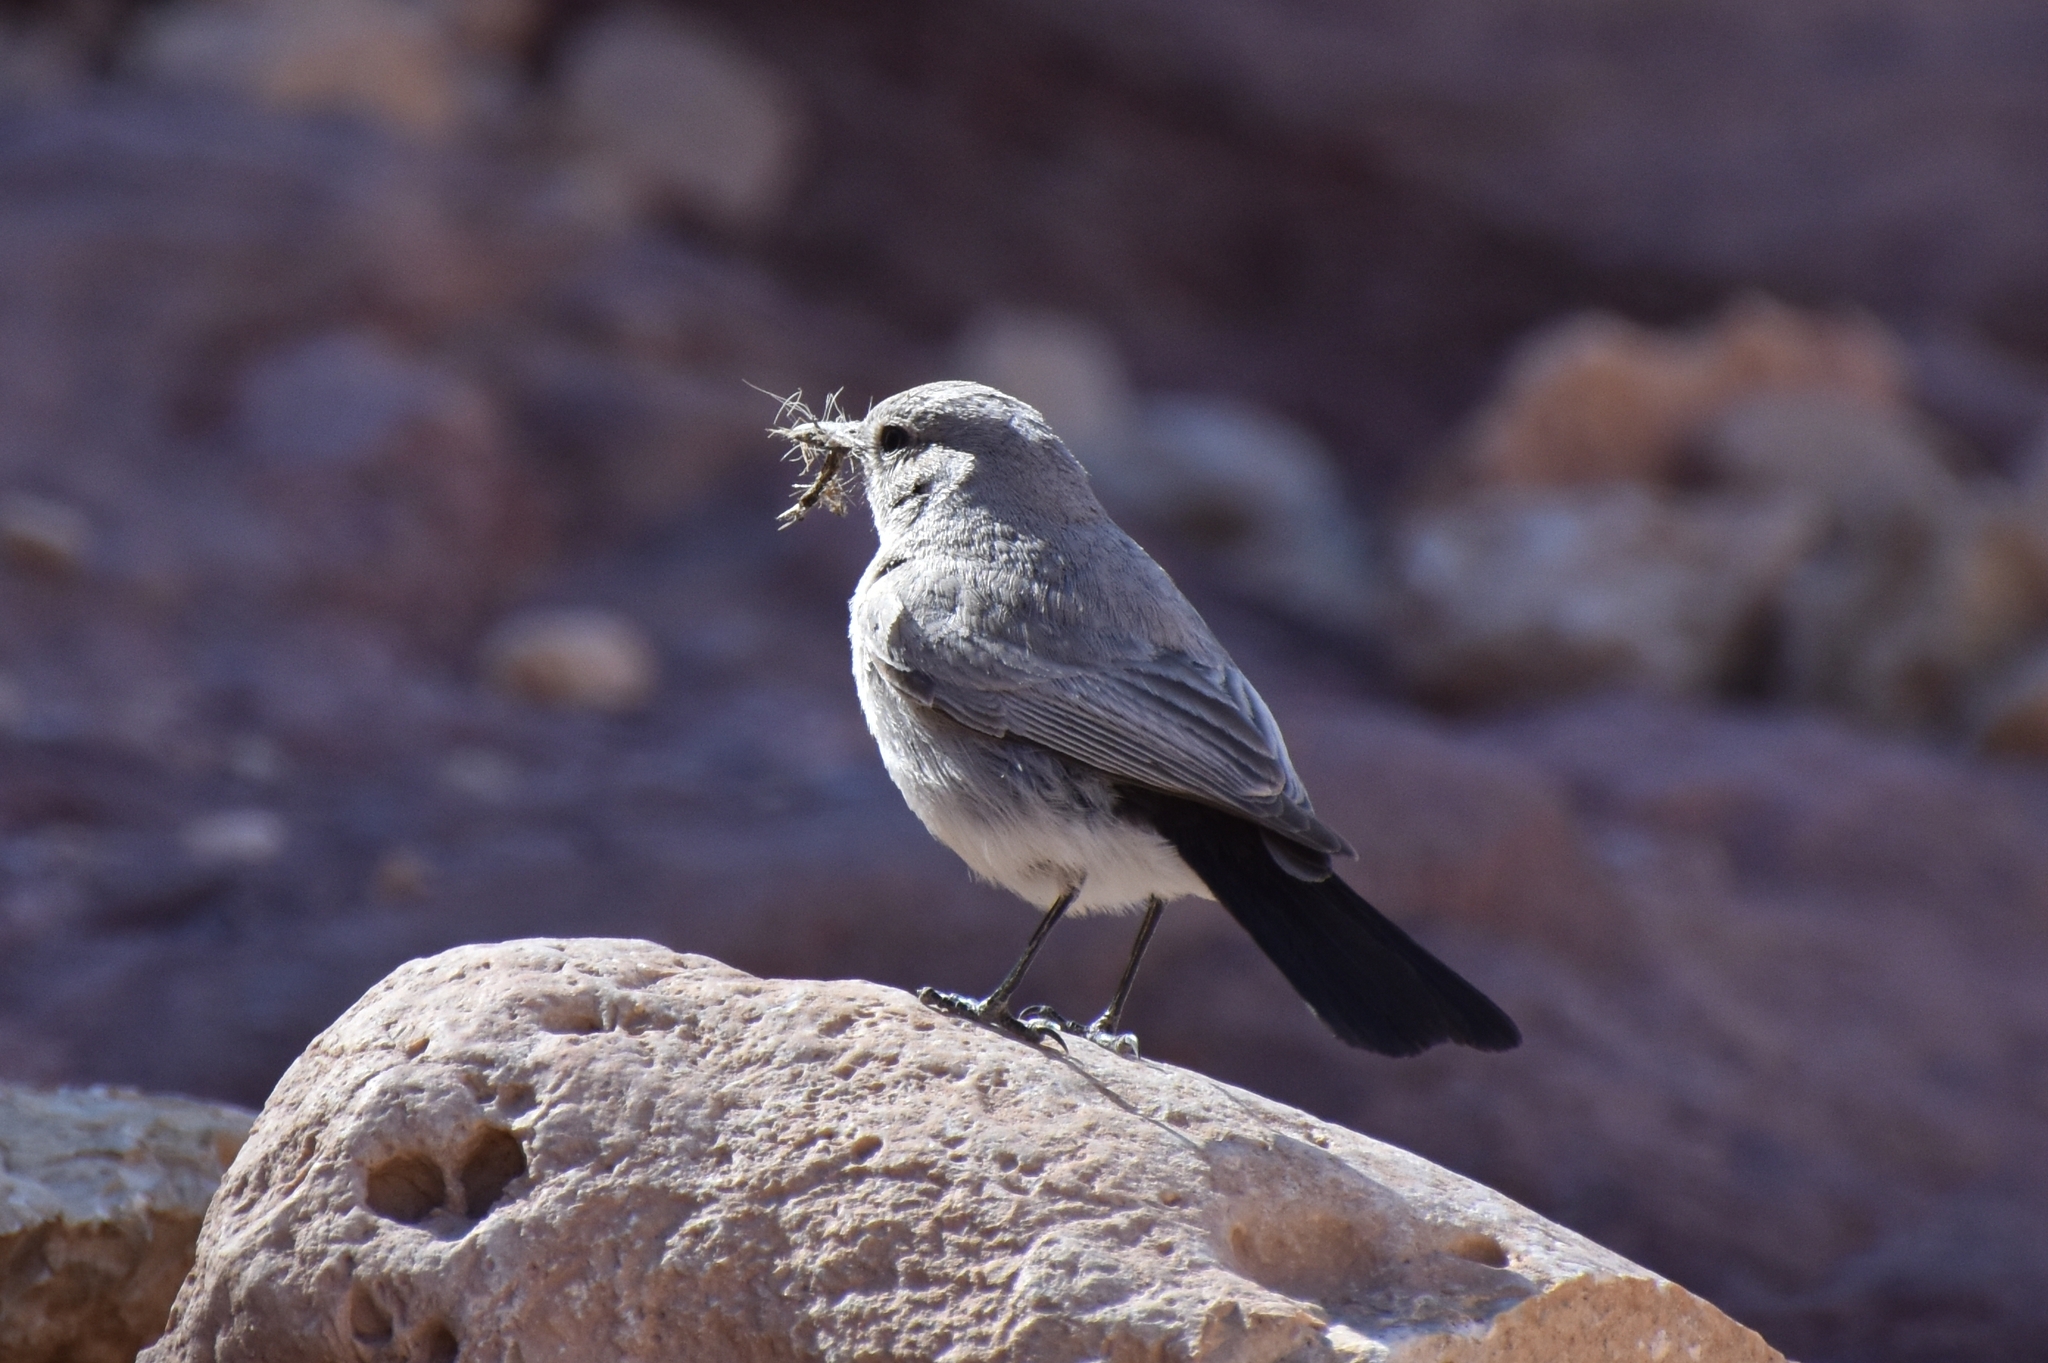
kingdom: Animalia
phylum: Chordata
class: Aves
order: Passeriformes
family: Muscicapidae
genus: Oenanthe
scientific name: Oenanthe melanura
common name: Blackstart
